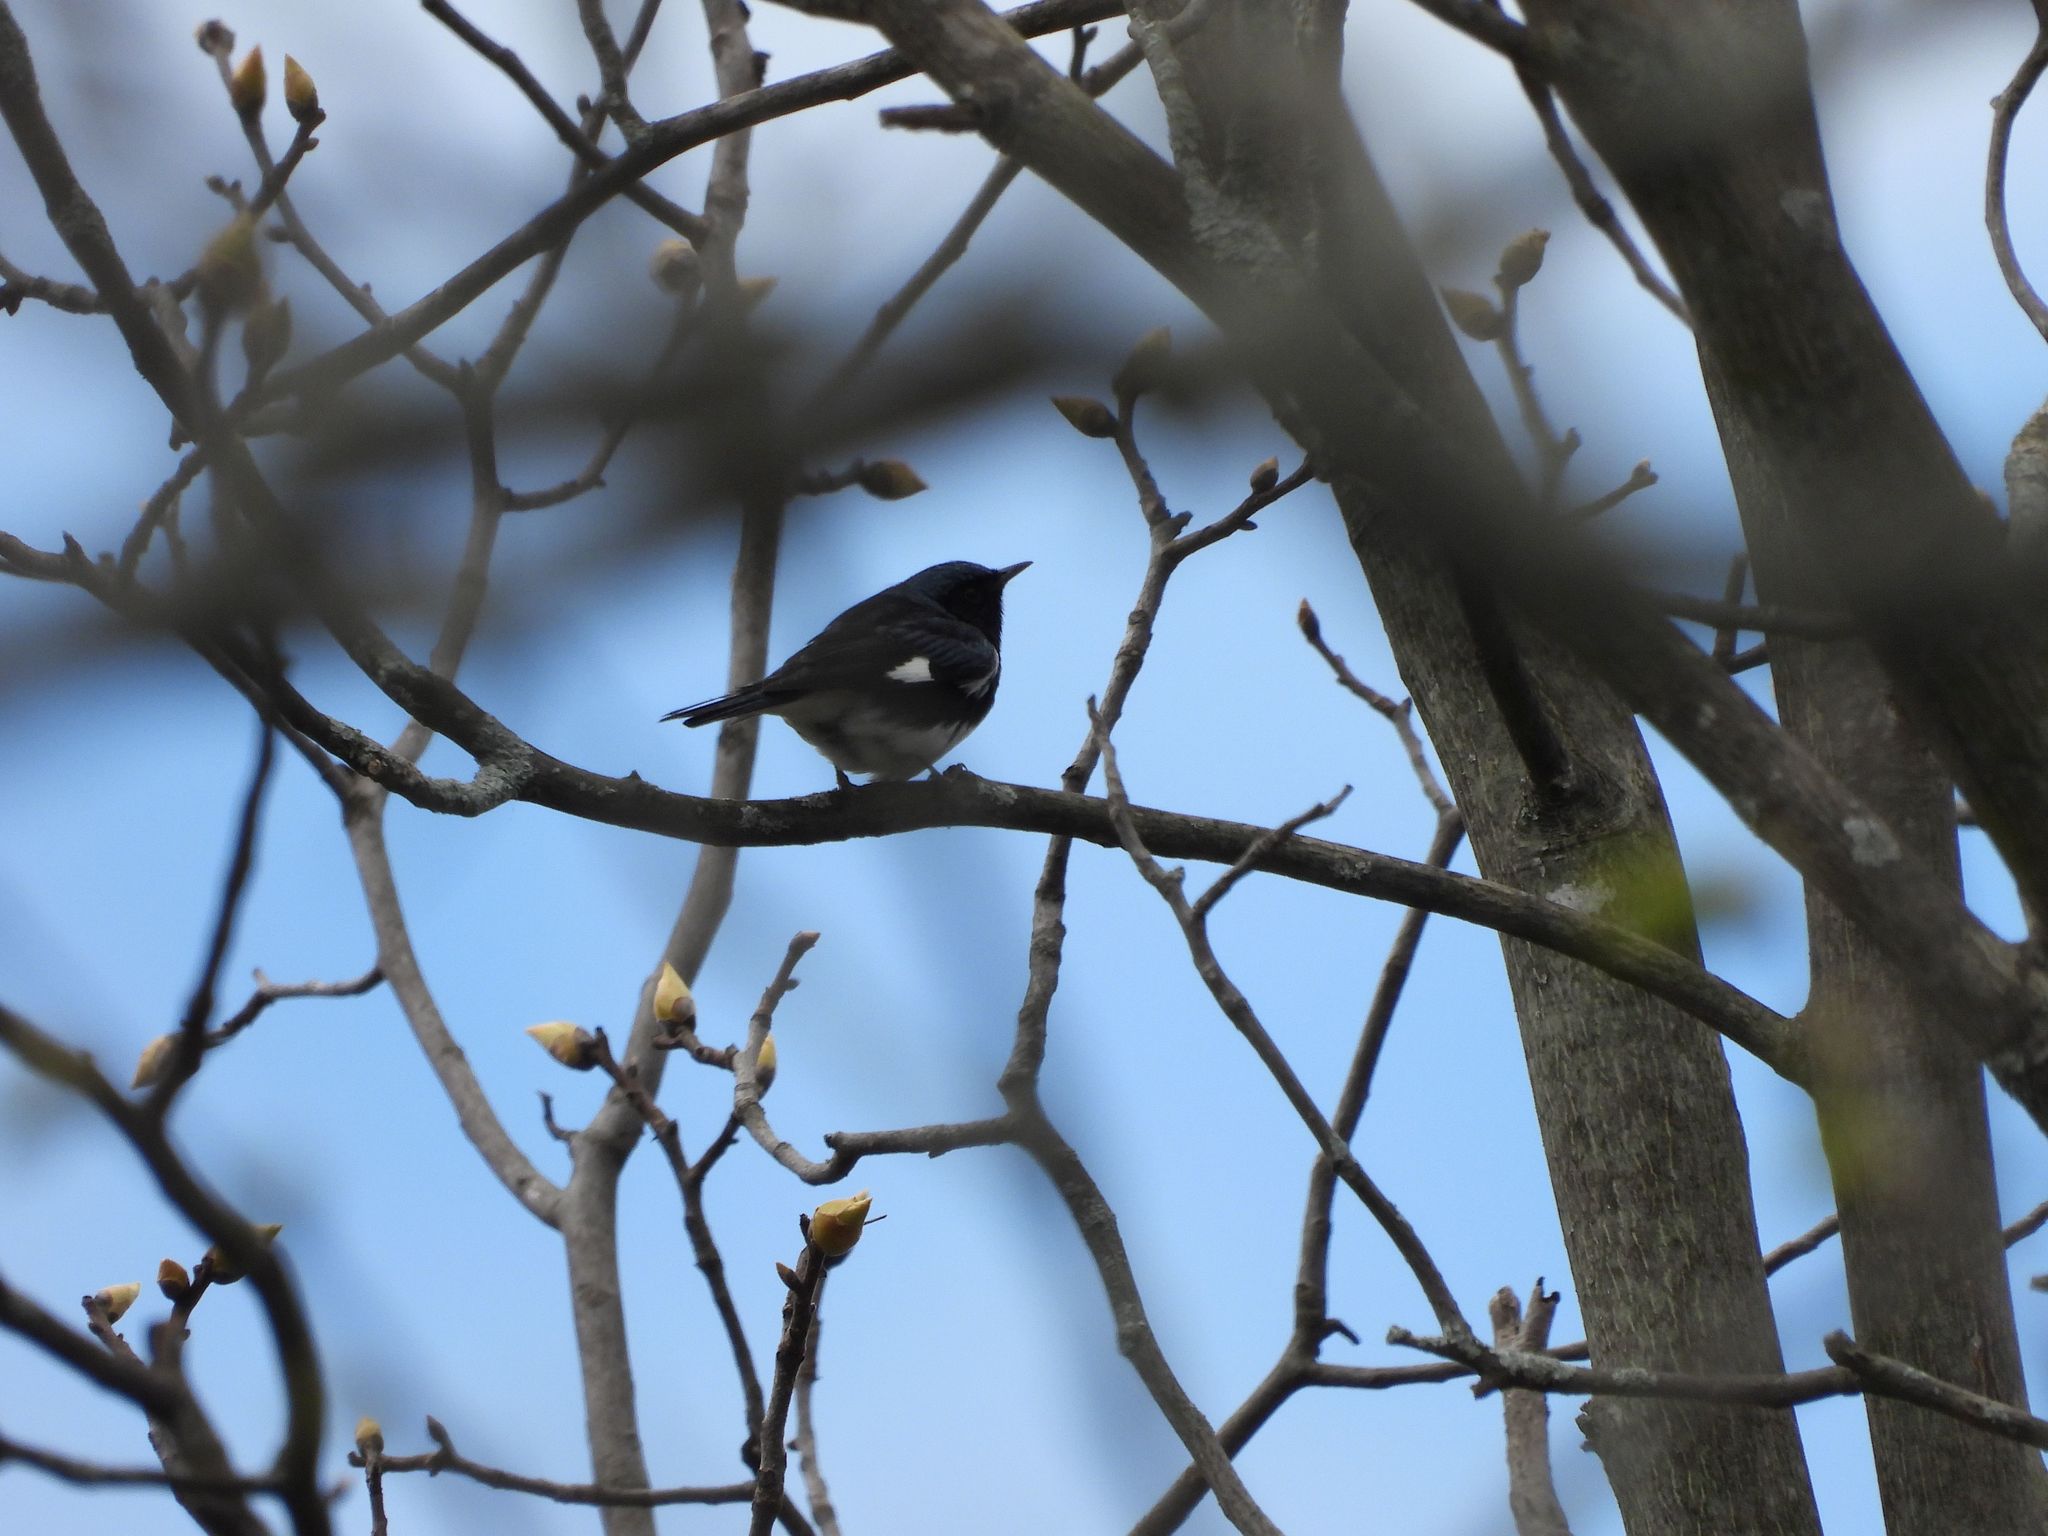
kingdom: Animalia
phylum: Chordata
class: Aves
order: Passeriformes
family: Parulidae
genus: Setophaga
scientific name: Setophaga caerulescens
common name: Black-throated blue warbler
